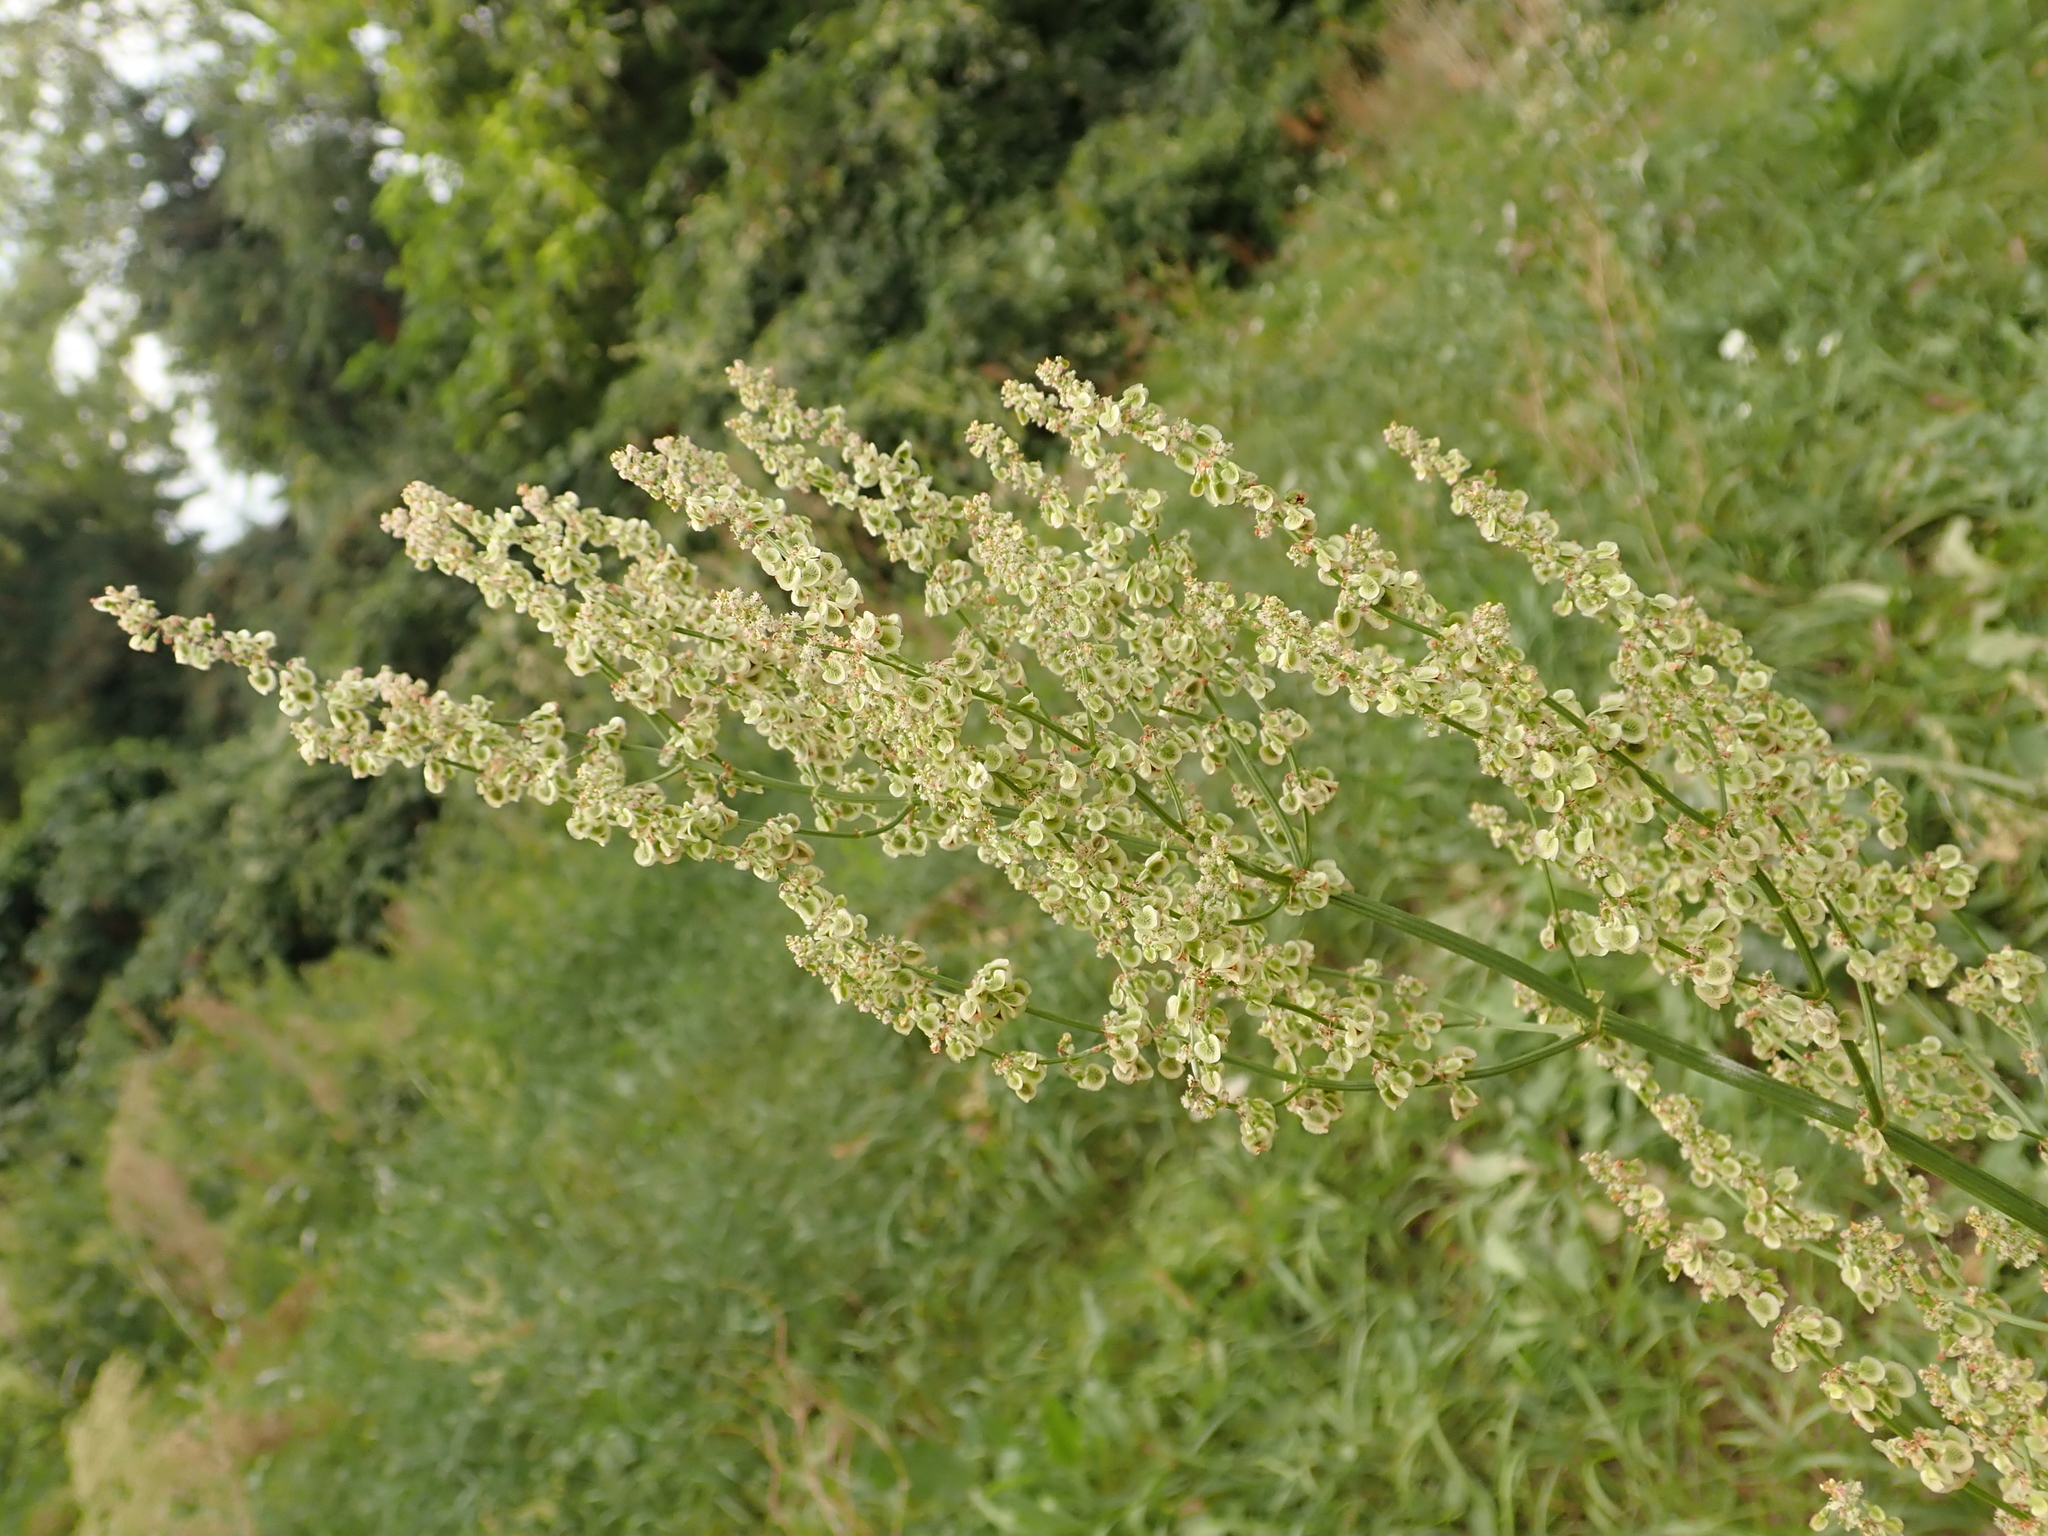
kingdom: Plantae
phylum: Tracheophyta
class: Magnoliopsida
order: Caryophyllales
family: Polygonaceae
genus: Rumex
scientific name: Rumex thyrsiflorus
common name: Garden sorrel
